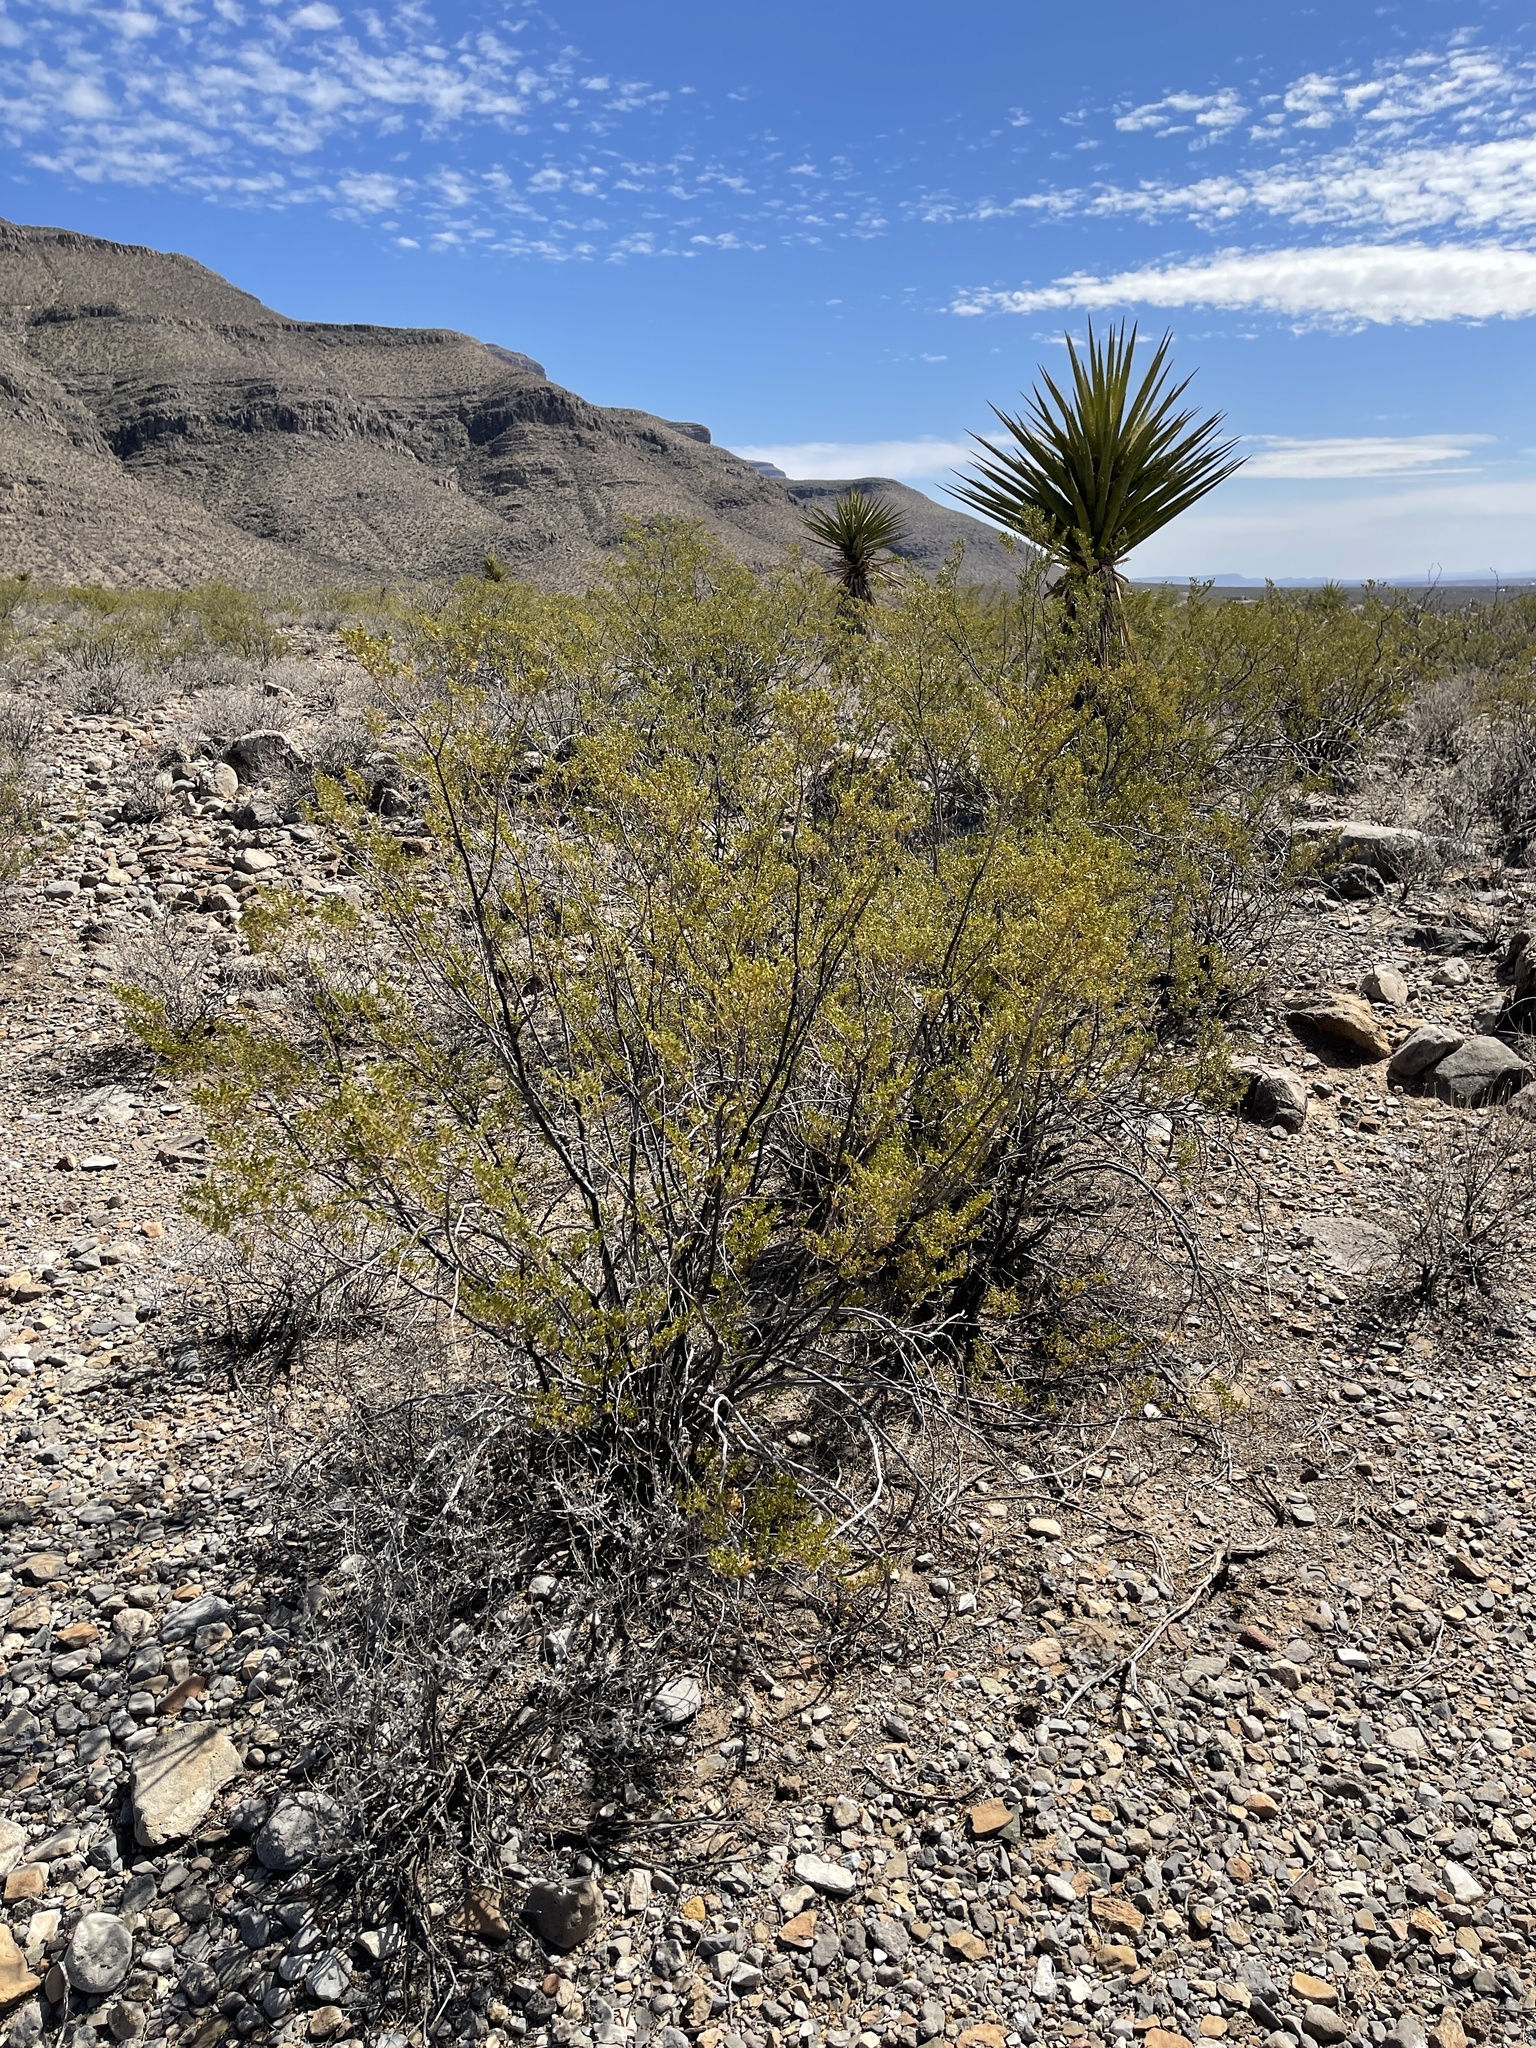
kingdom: Plantae
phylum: Tracheophyta
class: Magnoliopsida
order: Zygophyllales
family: Zygophyllaceae
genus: Larrea
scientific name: Larrea tridentata
